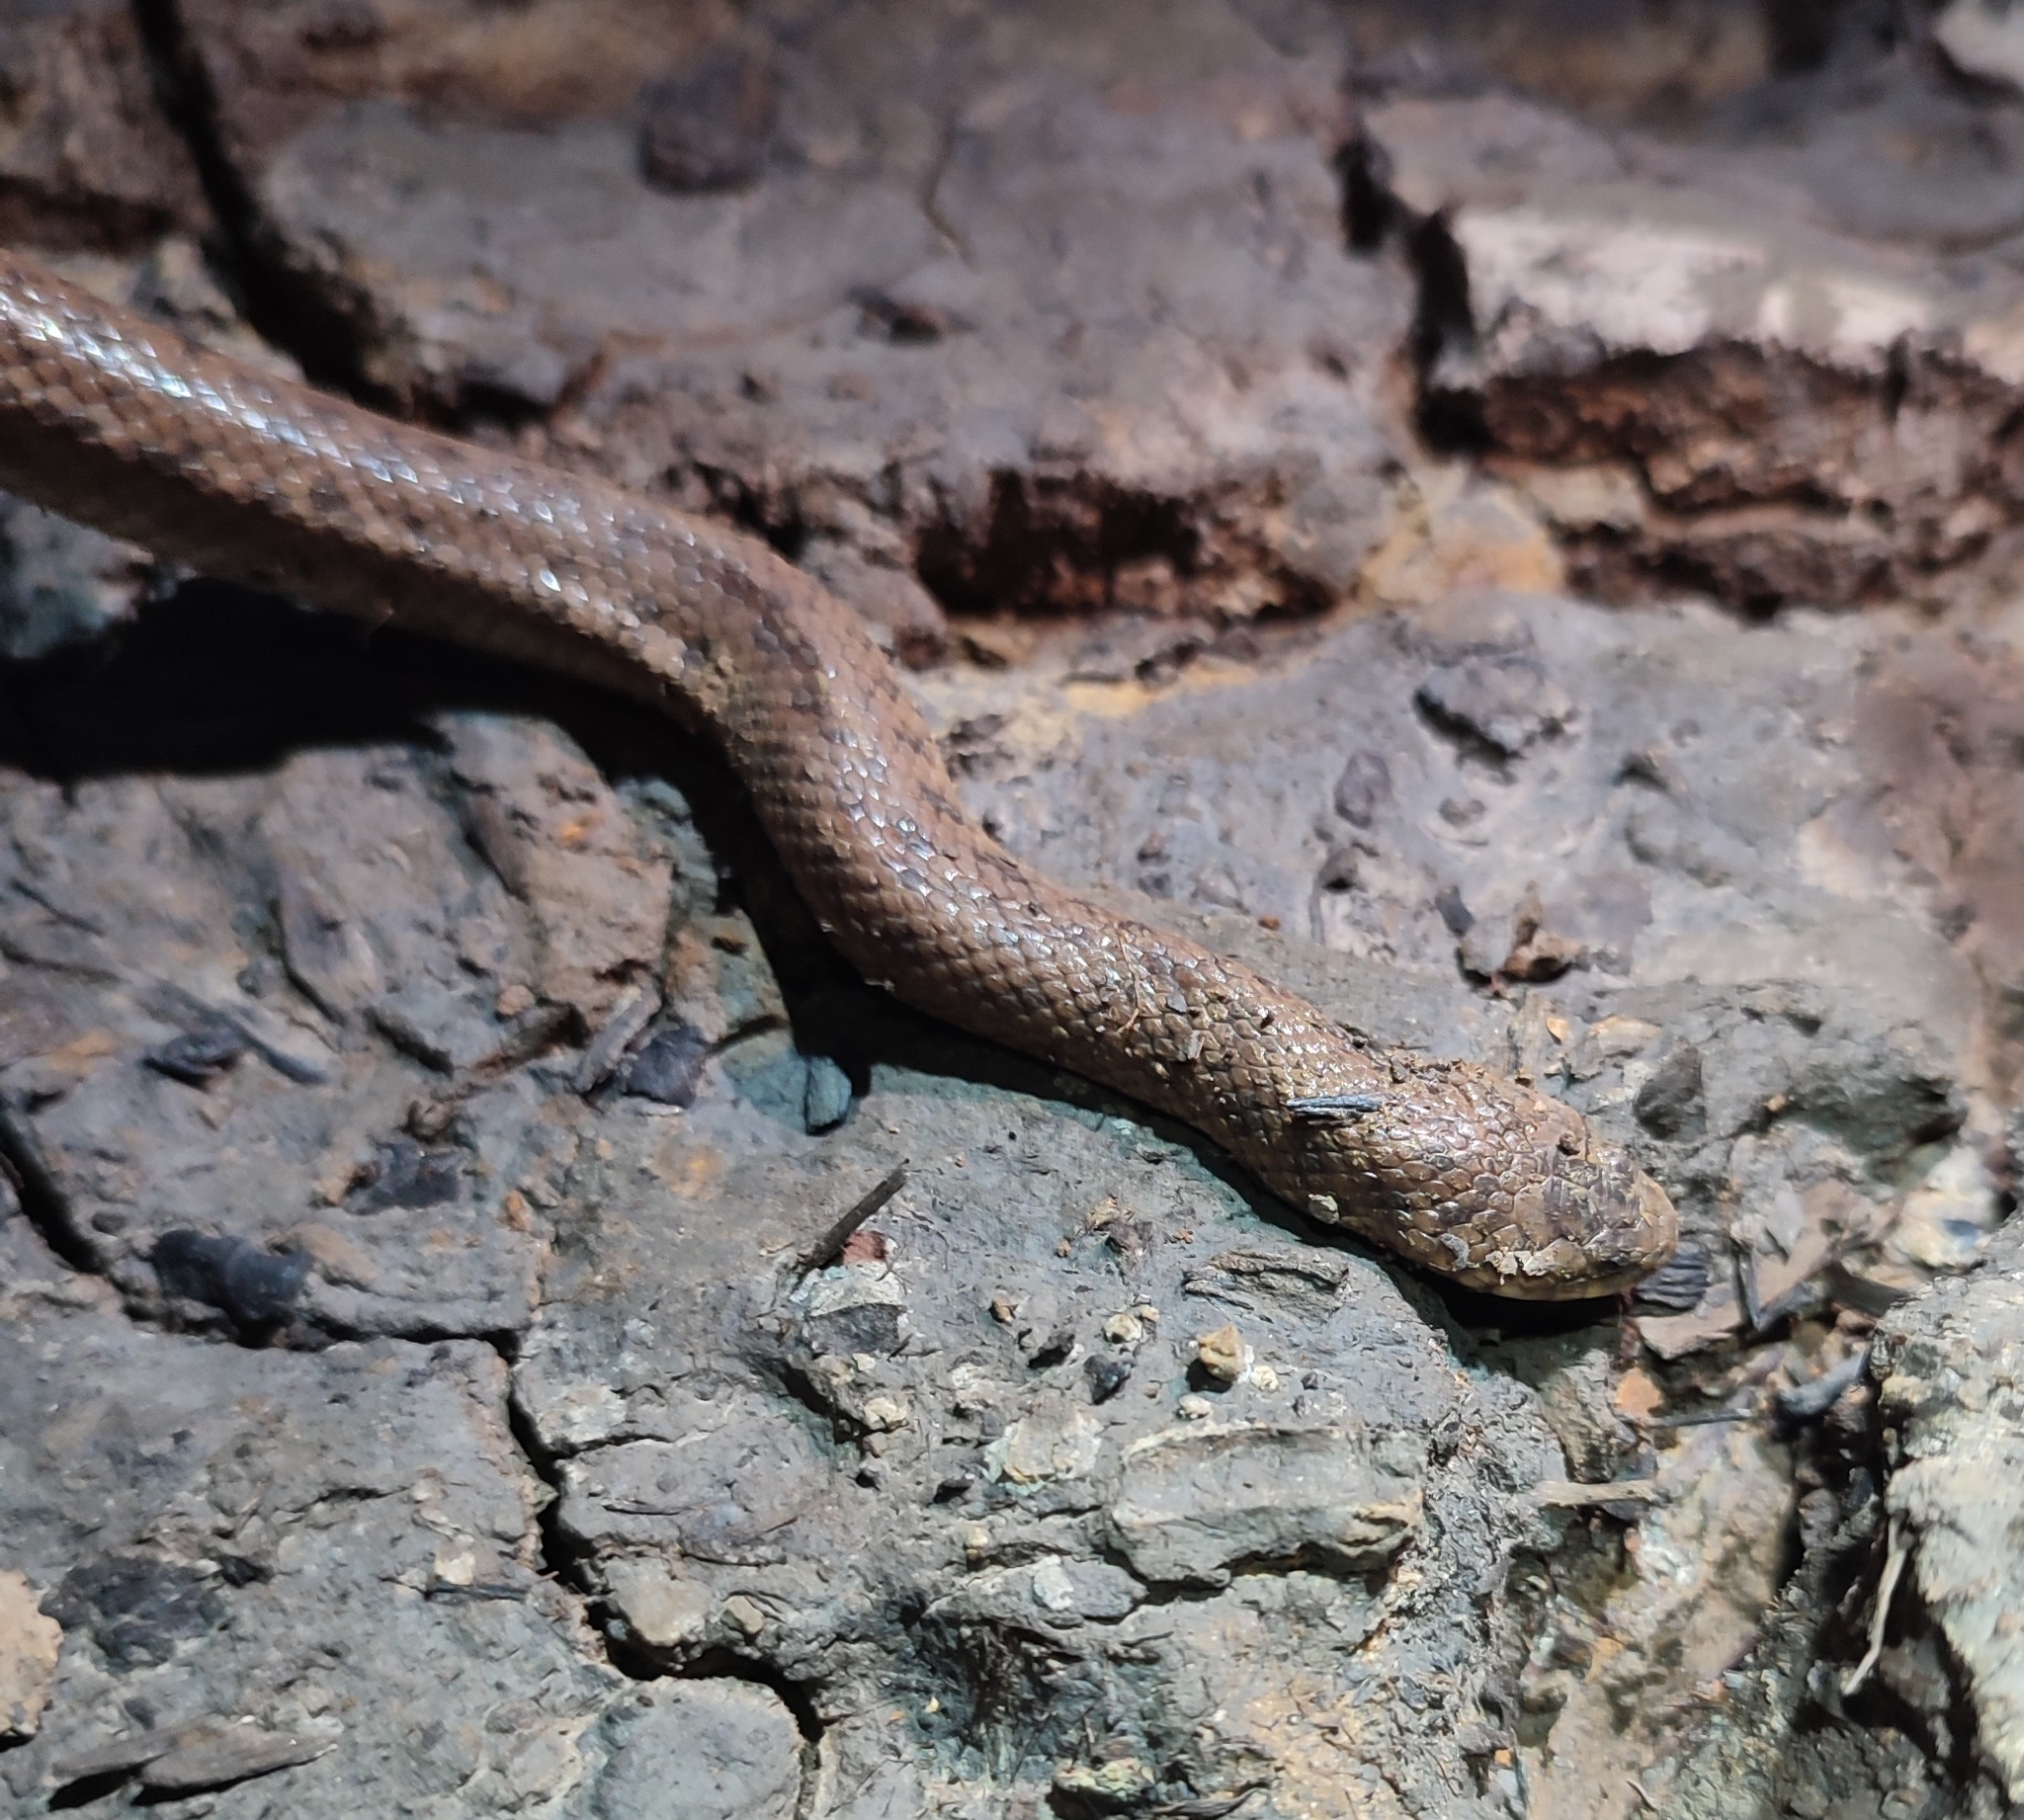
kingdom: Animalia
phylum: Chordata
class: Squamata
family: Homalopsidae
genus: Fordonia
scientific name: Fordonia leucobalia
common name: White-bellied mangrove snake
